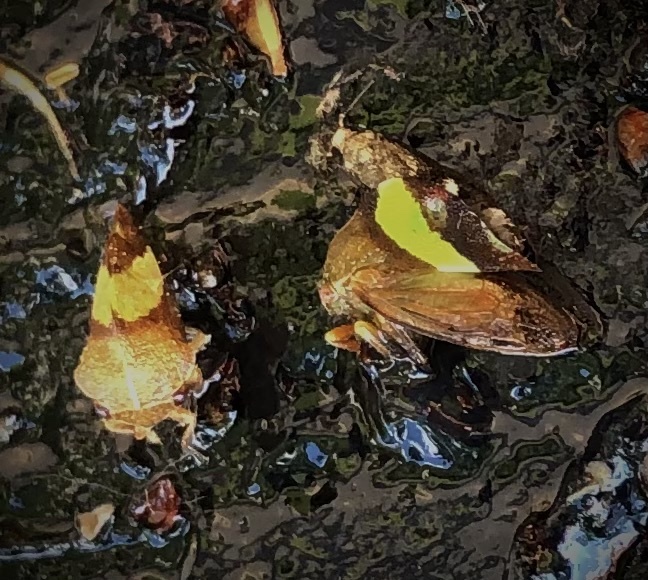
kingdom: Animalia
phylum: Arthropoda
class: Insecta
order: Hemiptera
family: Membracidae
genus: Smilia
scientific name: Smilia fasciata
